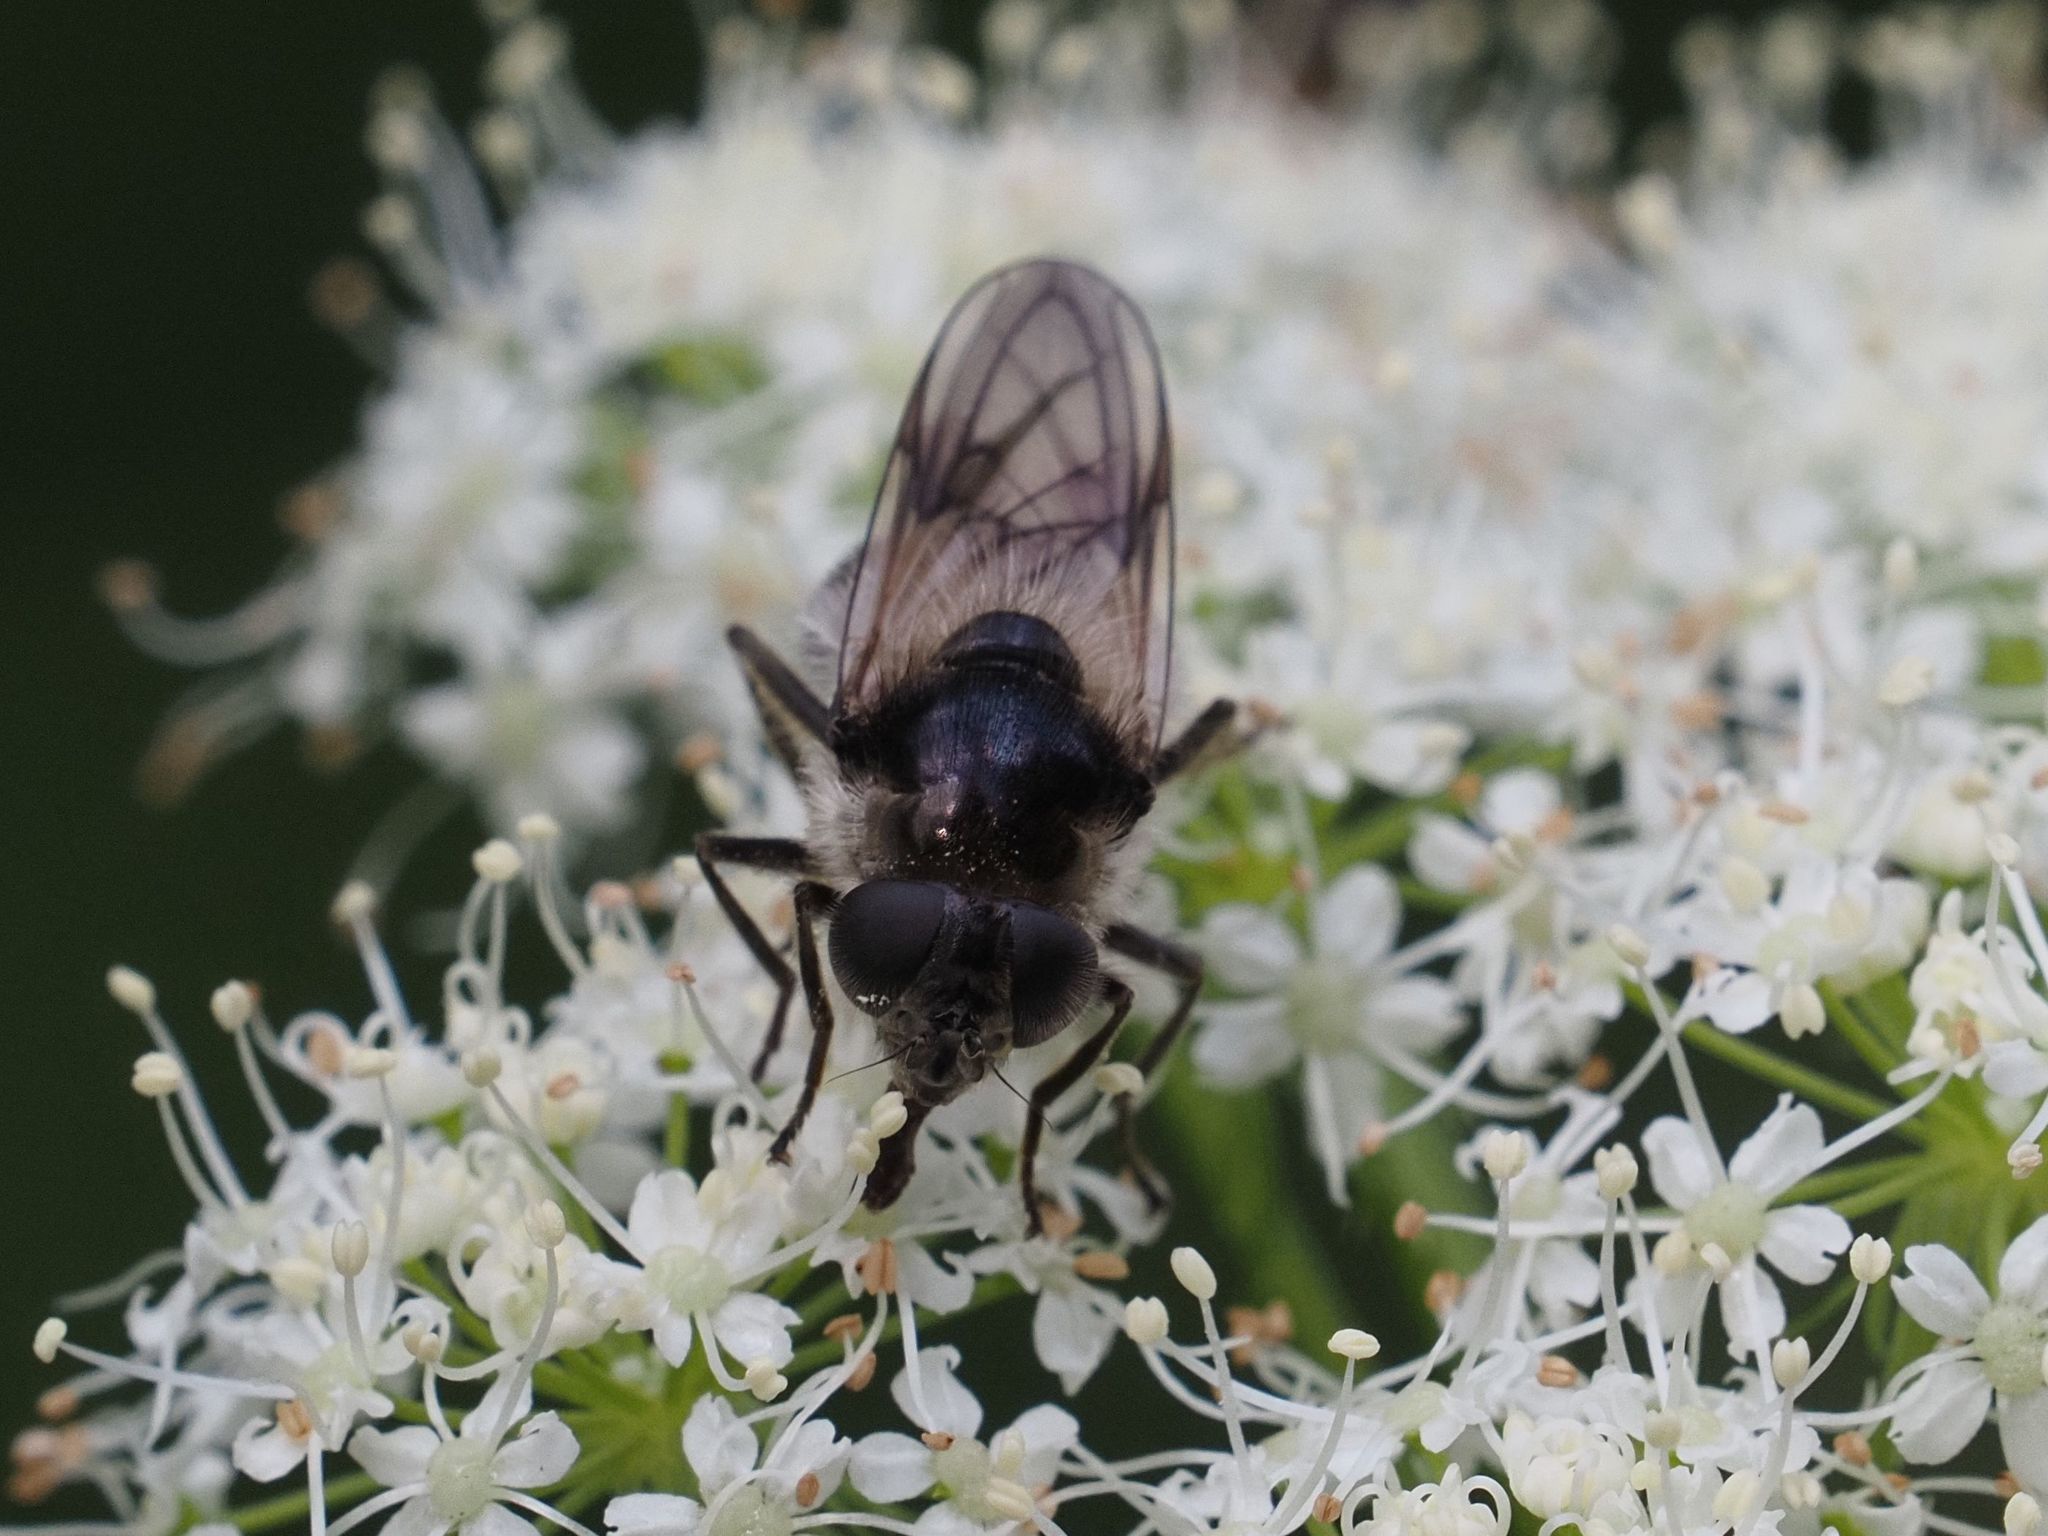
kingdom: Animalia
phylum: Arthropoda
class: Insecta
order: Diptera
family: Syrphidae
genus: Cheilosia
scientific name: Cheilosia illustrata
